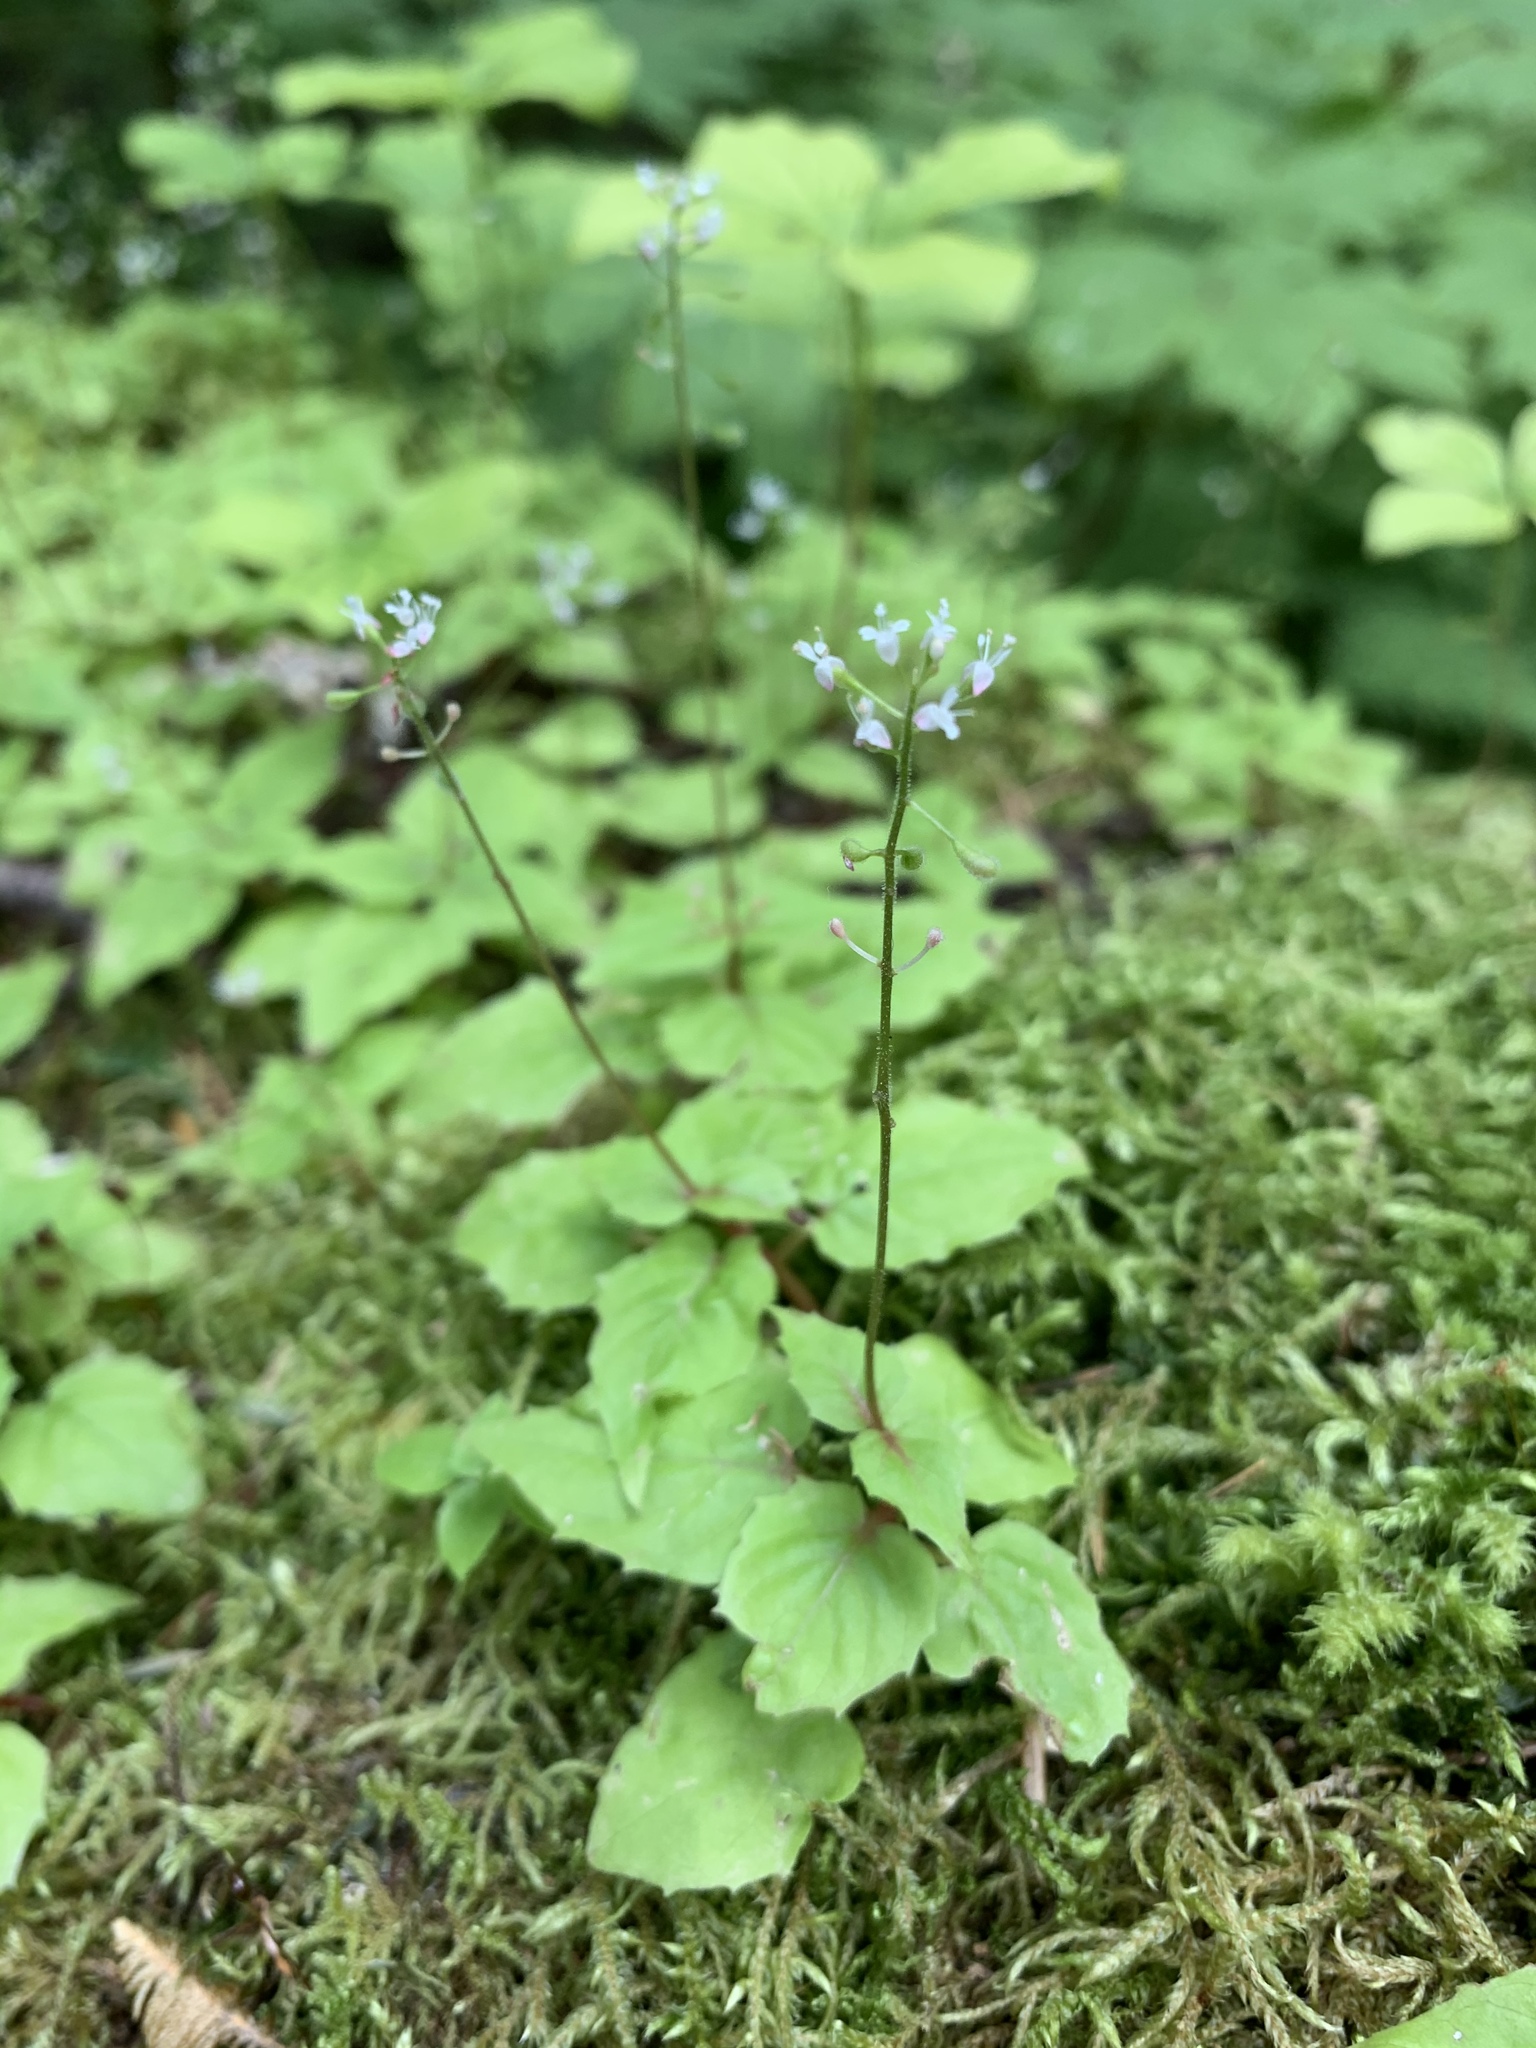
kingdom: Plantae
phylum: Tracheophyta
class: Magnoliopsida
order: Myrtales
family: Onagraceae
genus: Circaea
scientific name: Circaea alpina
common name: Alpine enchanter's-nightshade
